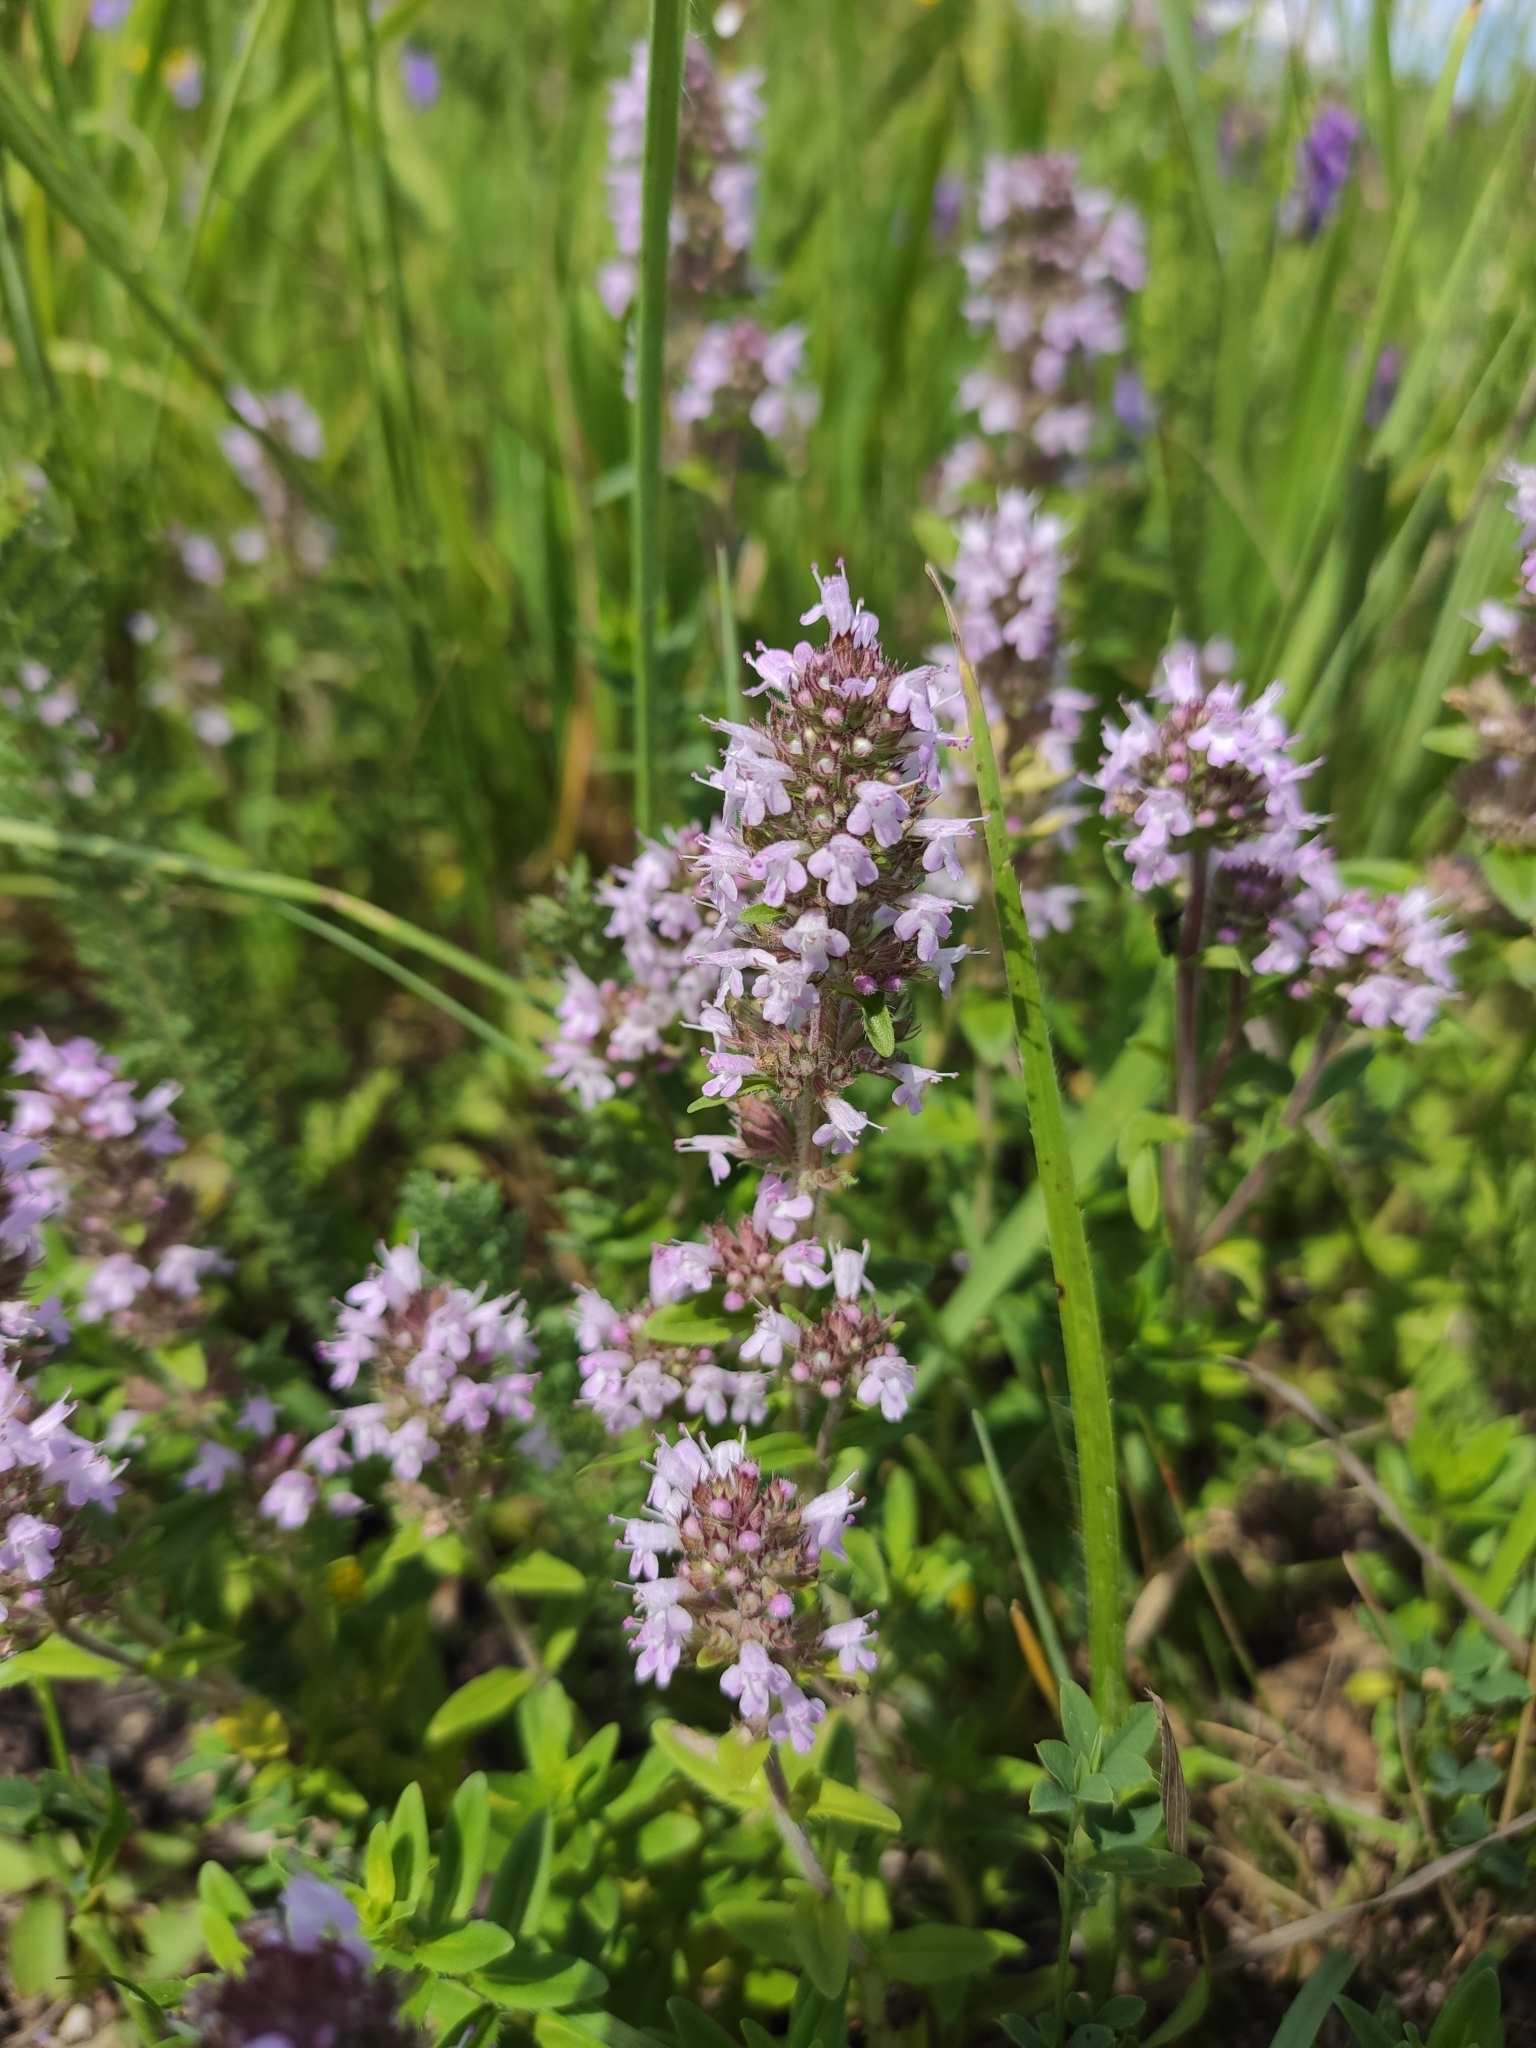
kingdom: Plantae
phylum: Tracheophyta
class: Magnoliopsida
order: Lamiales
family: Lamiaceae
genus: Thymus
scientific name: Thymus pannonicus
